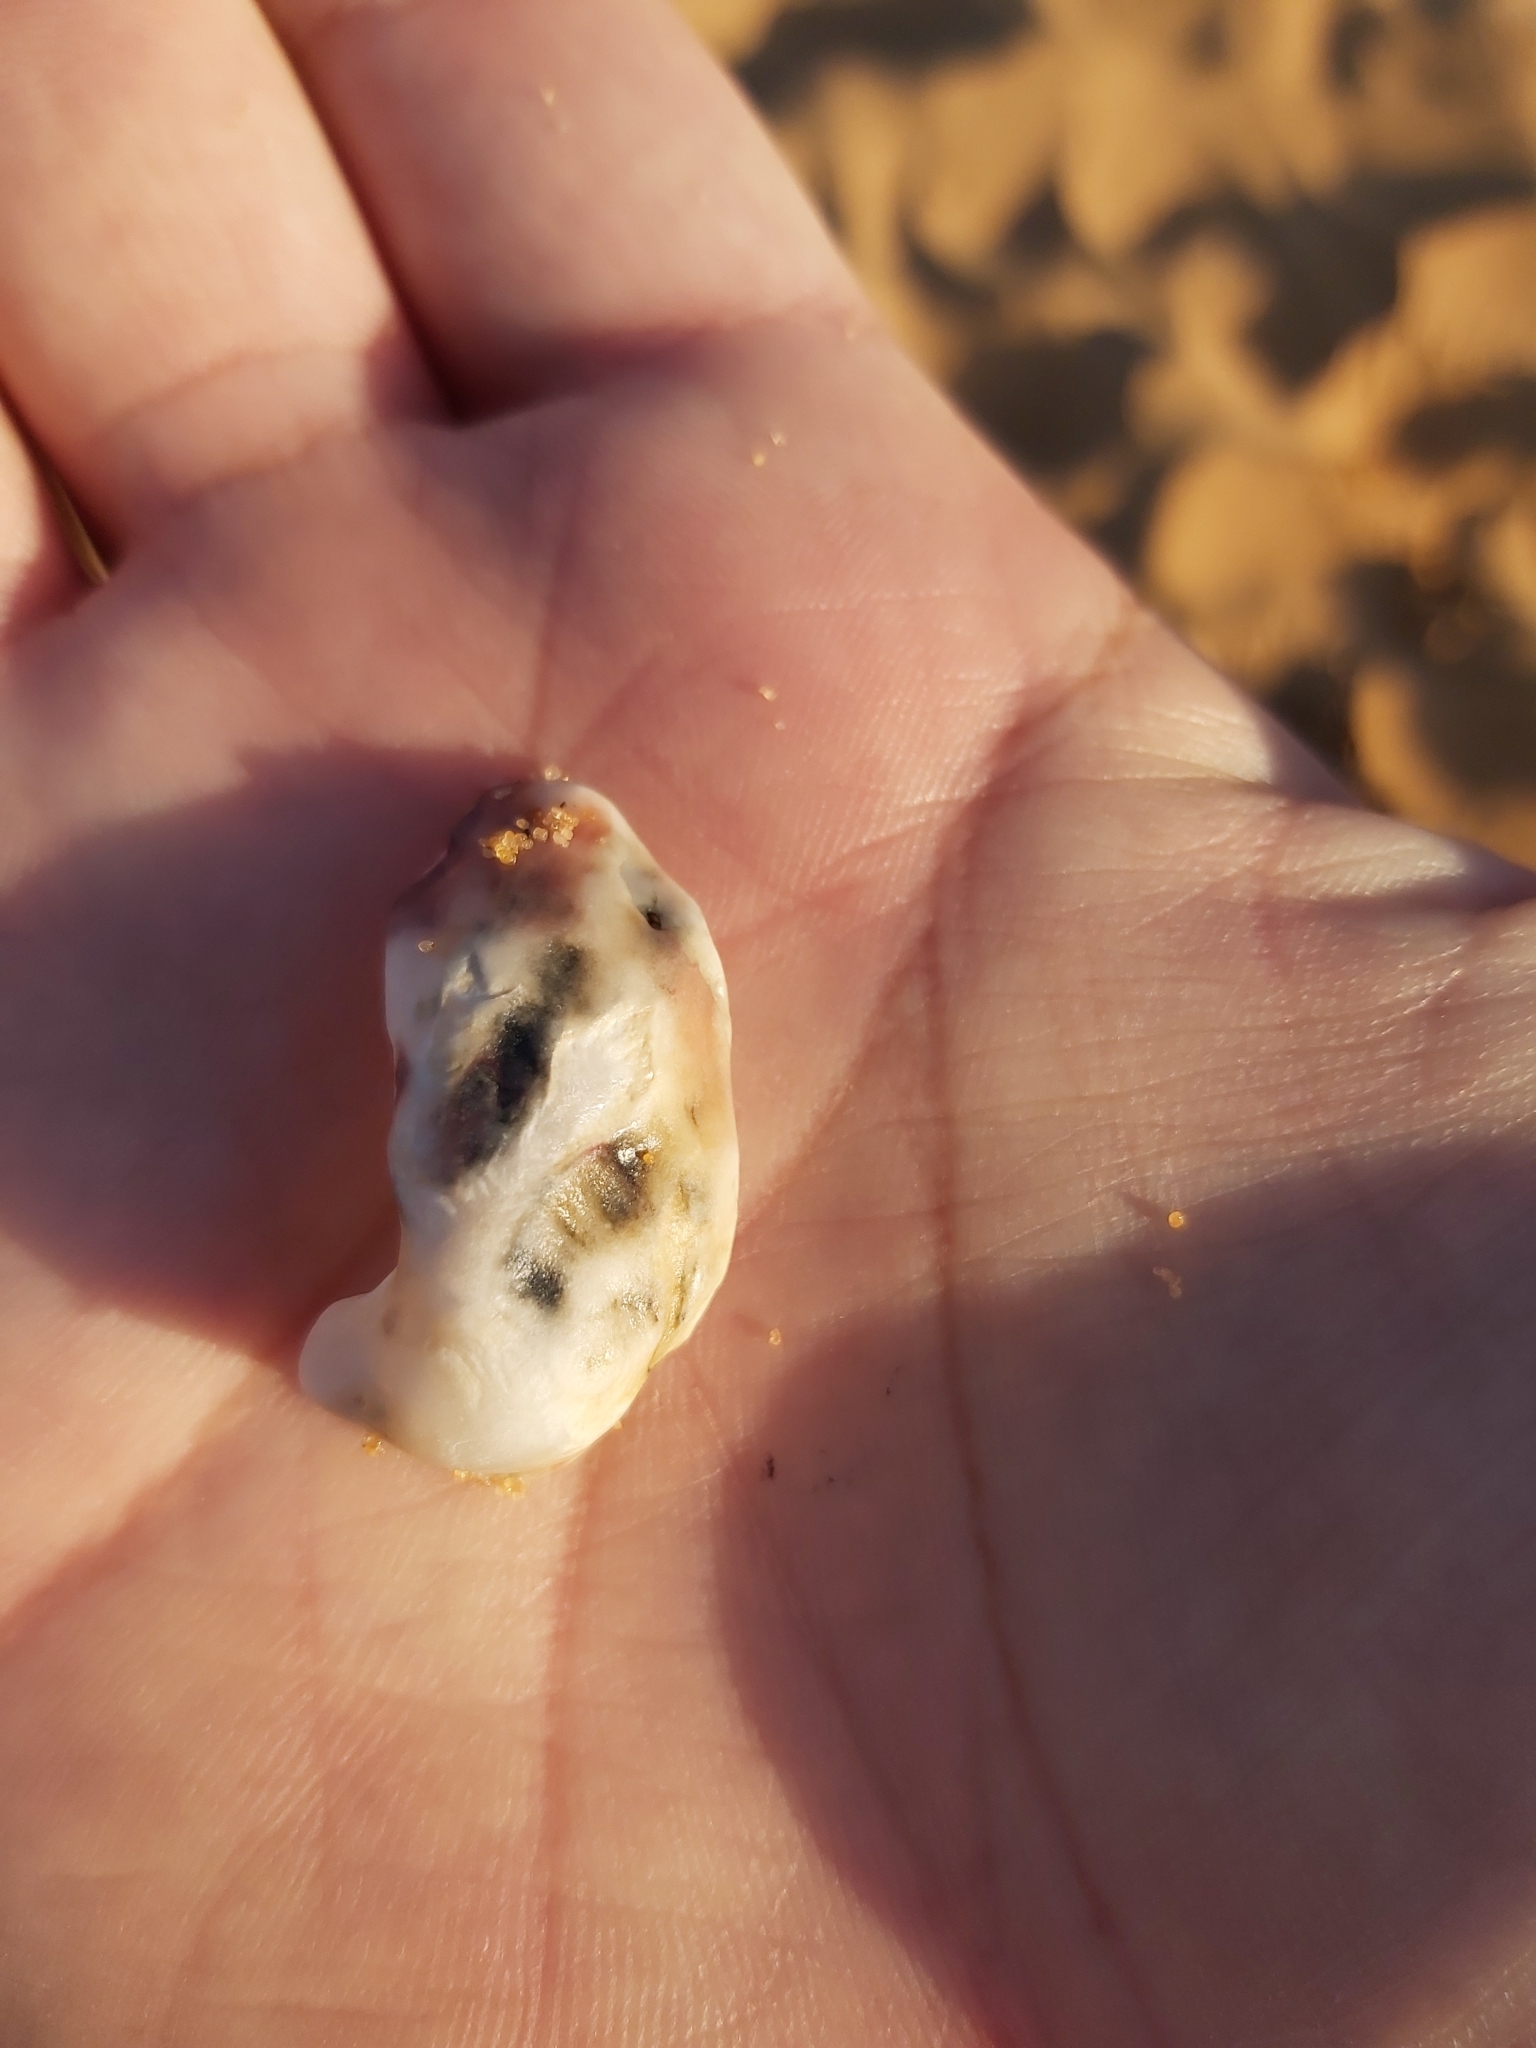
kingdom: Animalia
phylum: Mollusca
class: Bivalvia
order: Ostreida
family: Ostreidae
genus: Saccostrea
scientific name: Saccostrea glomerata
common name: Sydney cupped oyster
